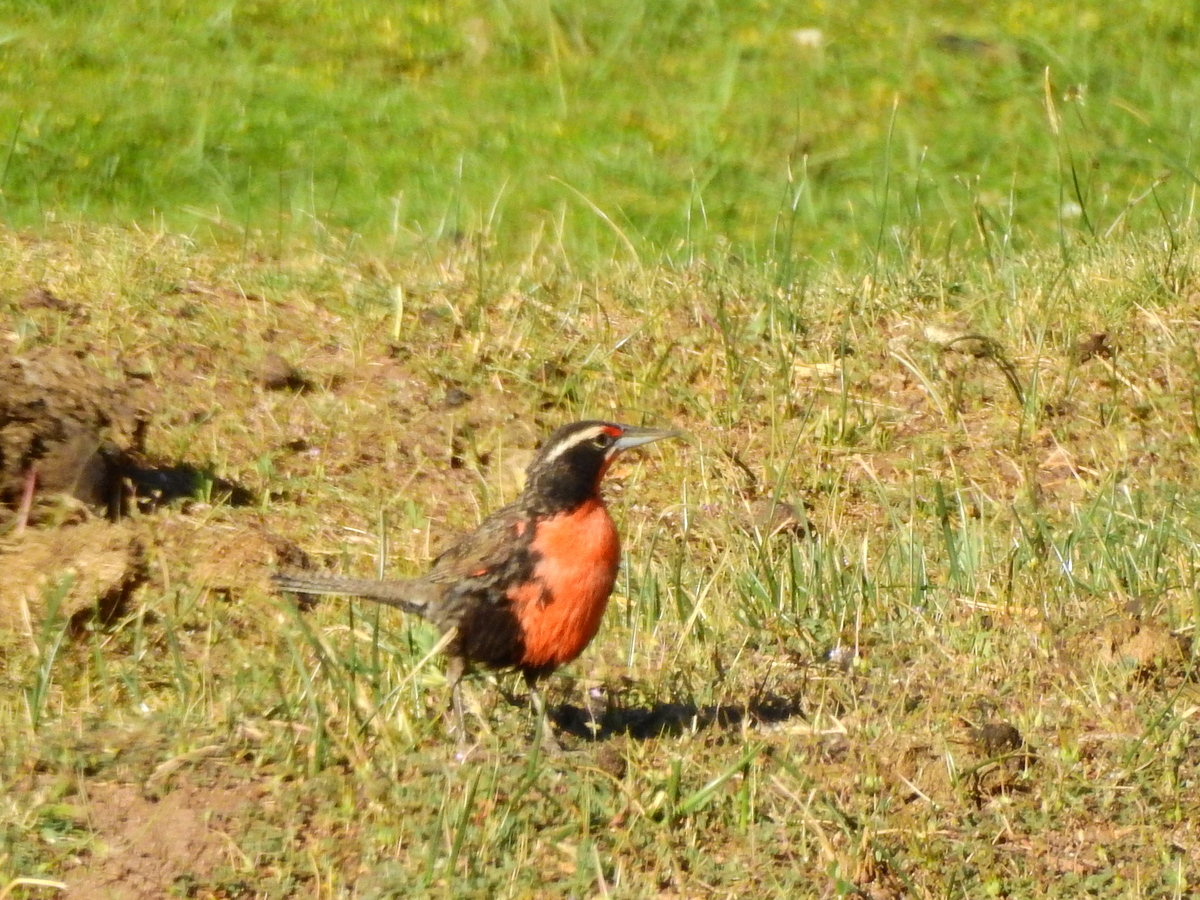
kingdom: Animalia
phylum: Chordata
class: Aves
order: Passeriformes
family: Icteridae
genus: Sturnella
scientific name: Sturnella loyca
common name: Long-tailed meadowlark
